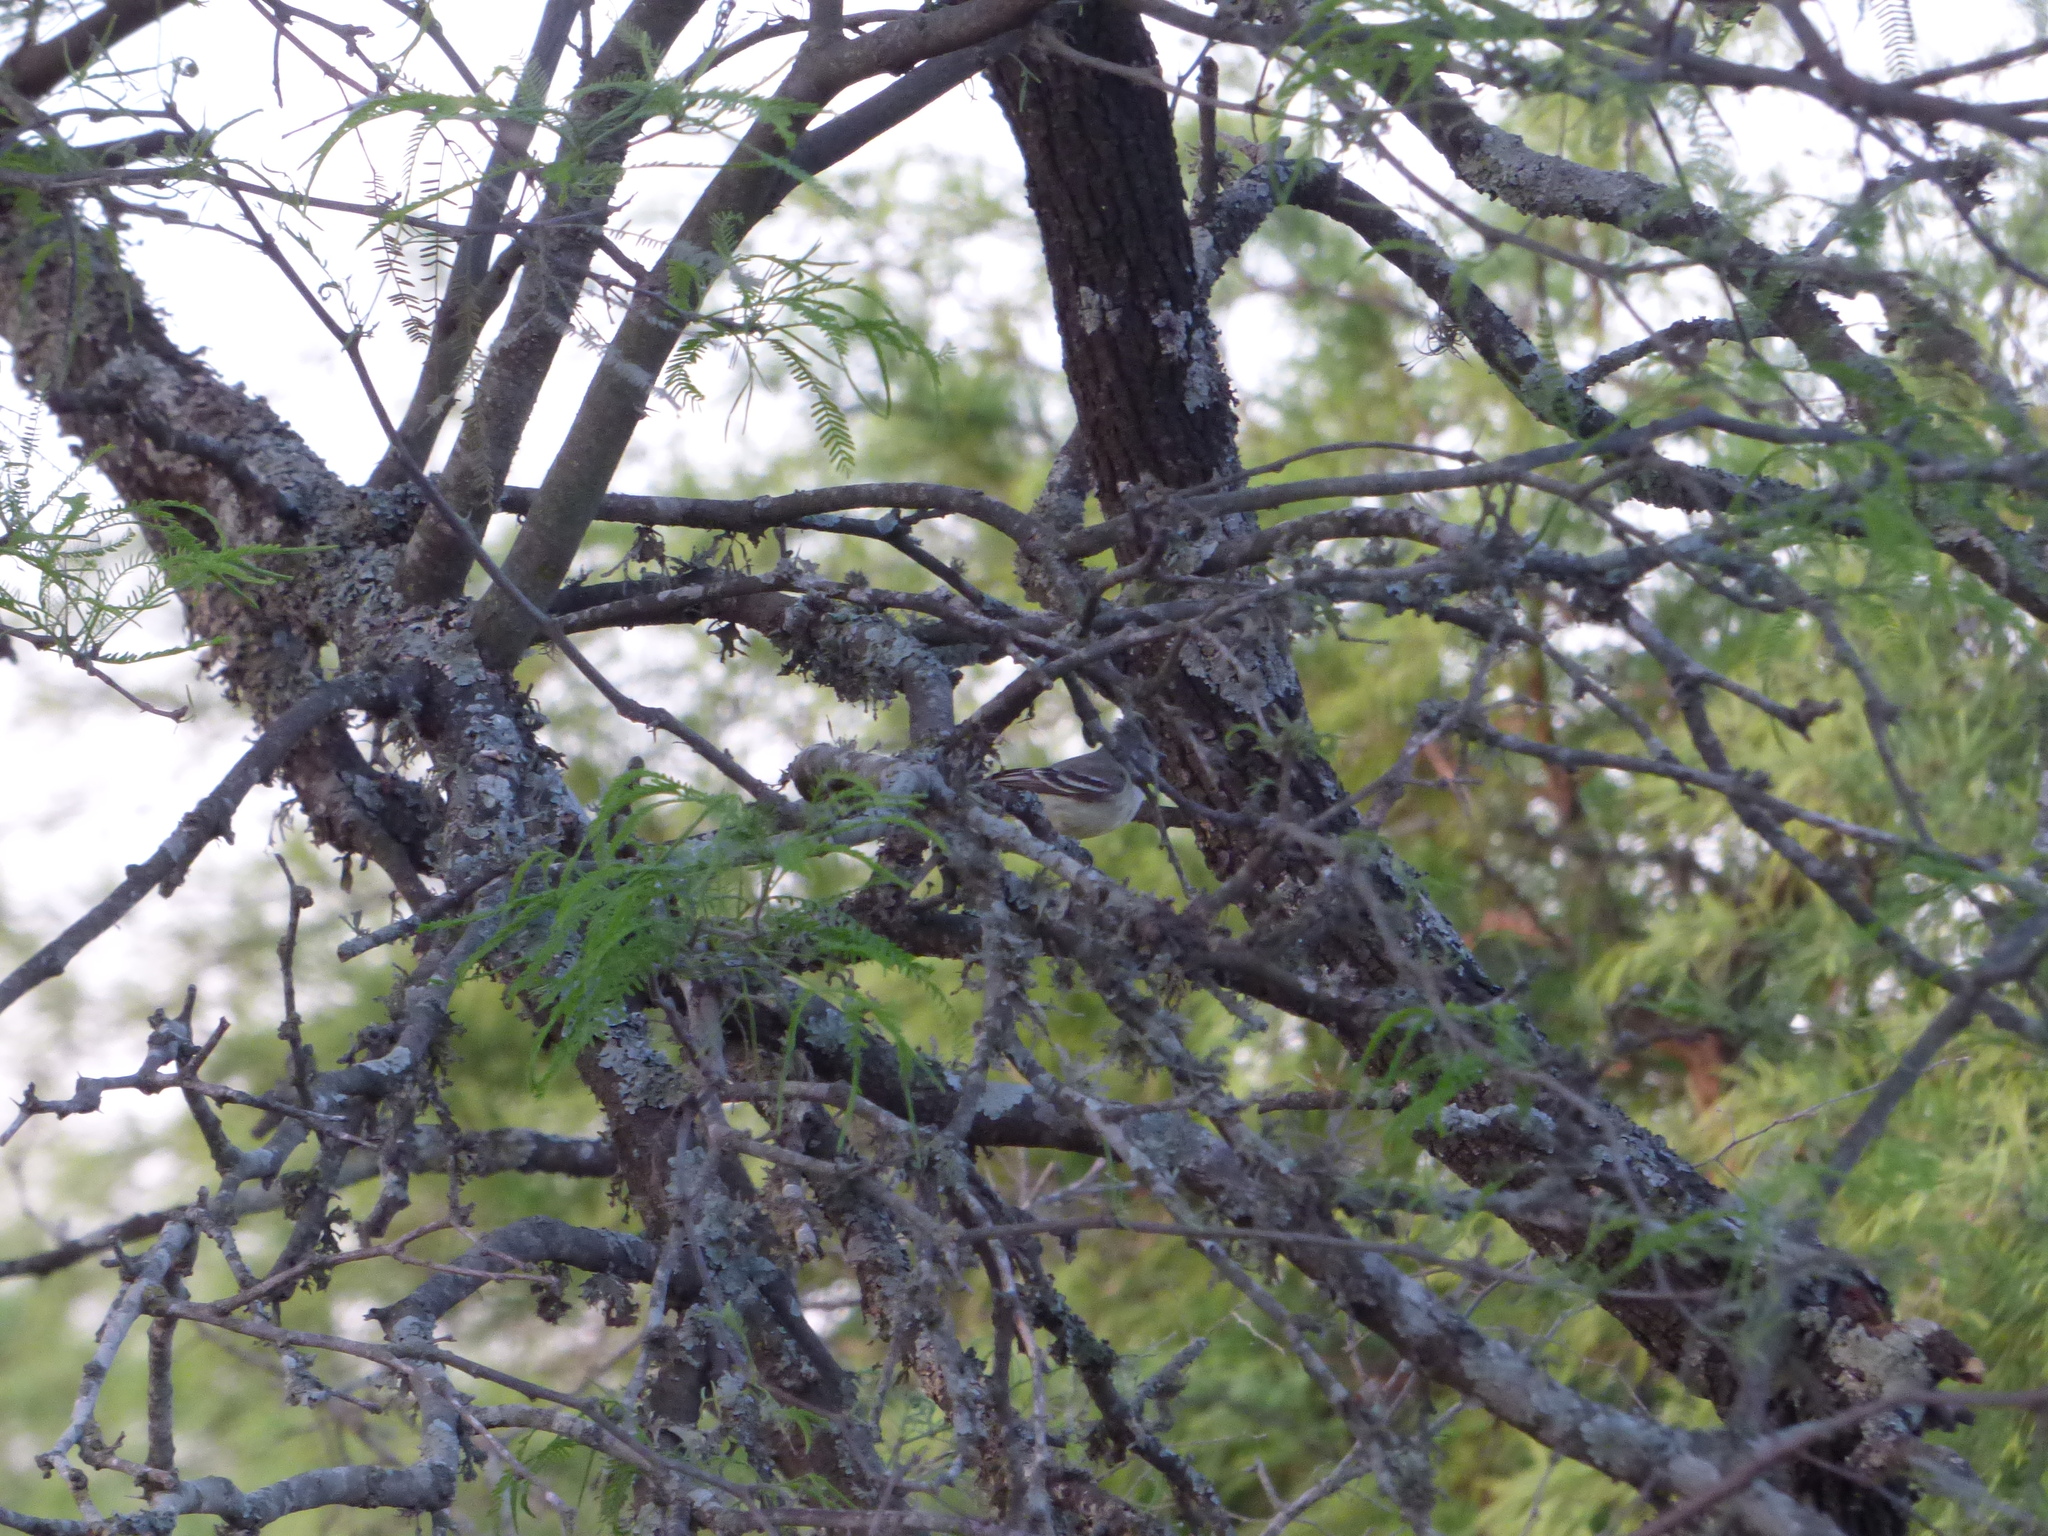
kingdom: Animalia
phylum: Chordata
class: Aves
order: Passeriformes
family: Tyrannidae
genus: Sublegatus
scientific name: Sublegatus modestus
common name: Southern scrub flycatcher
